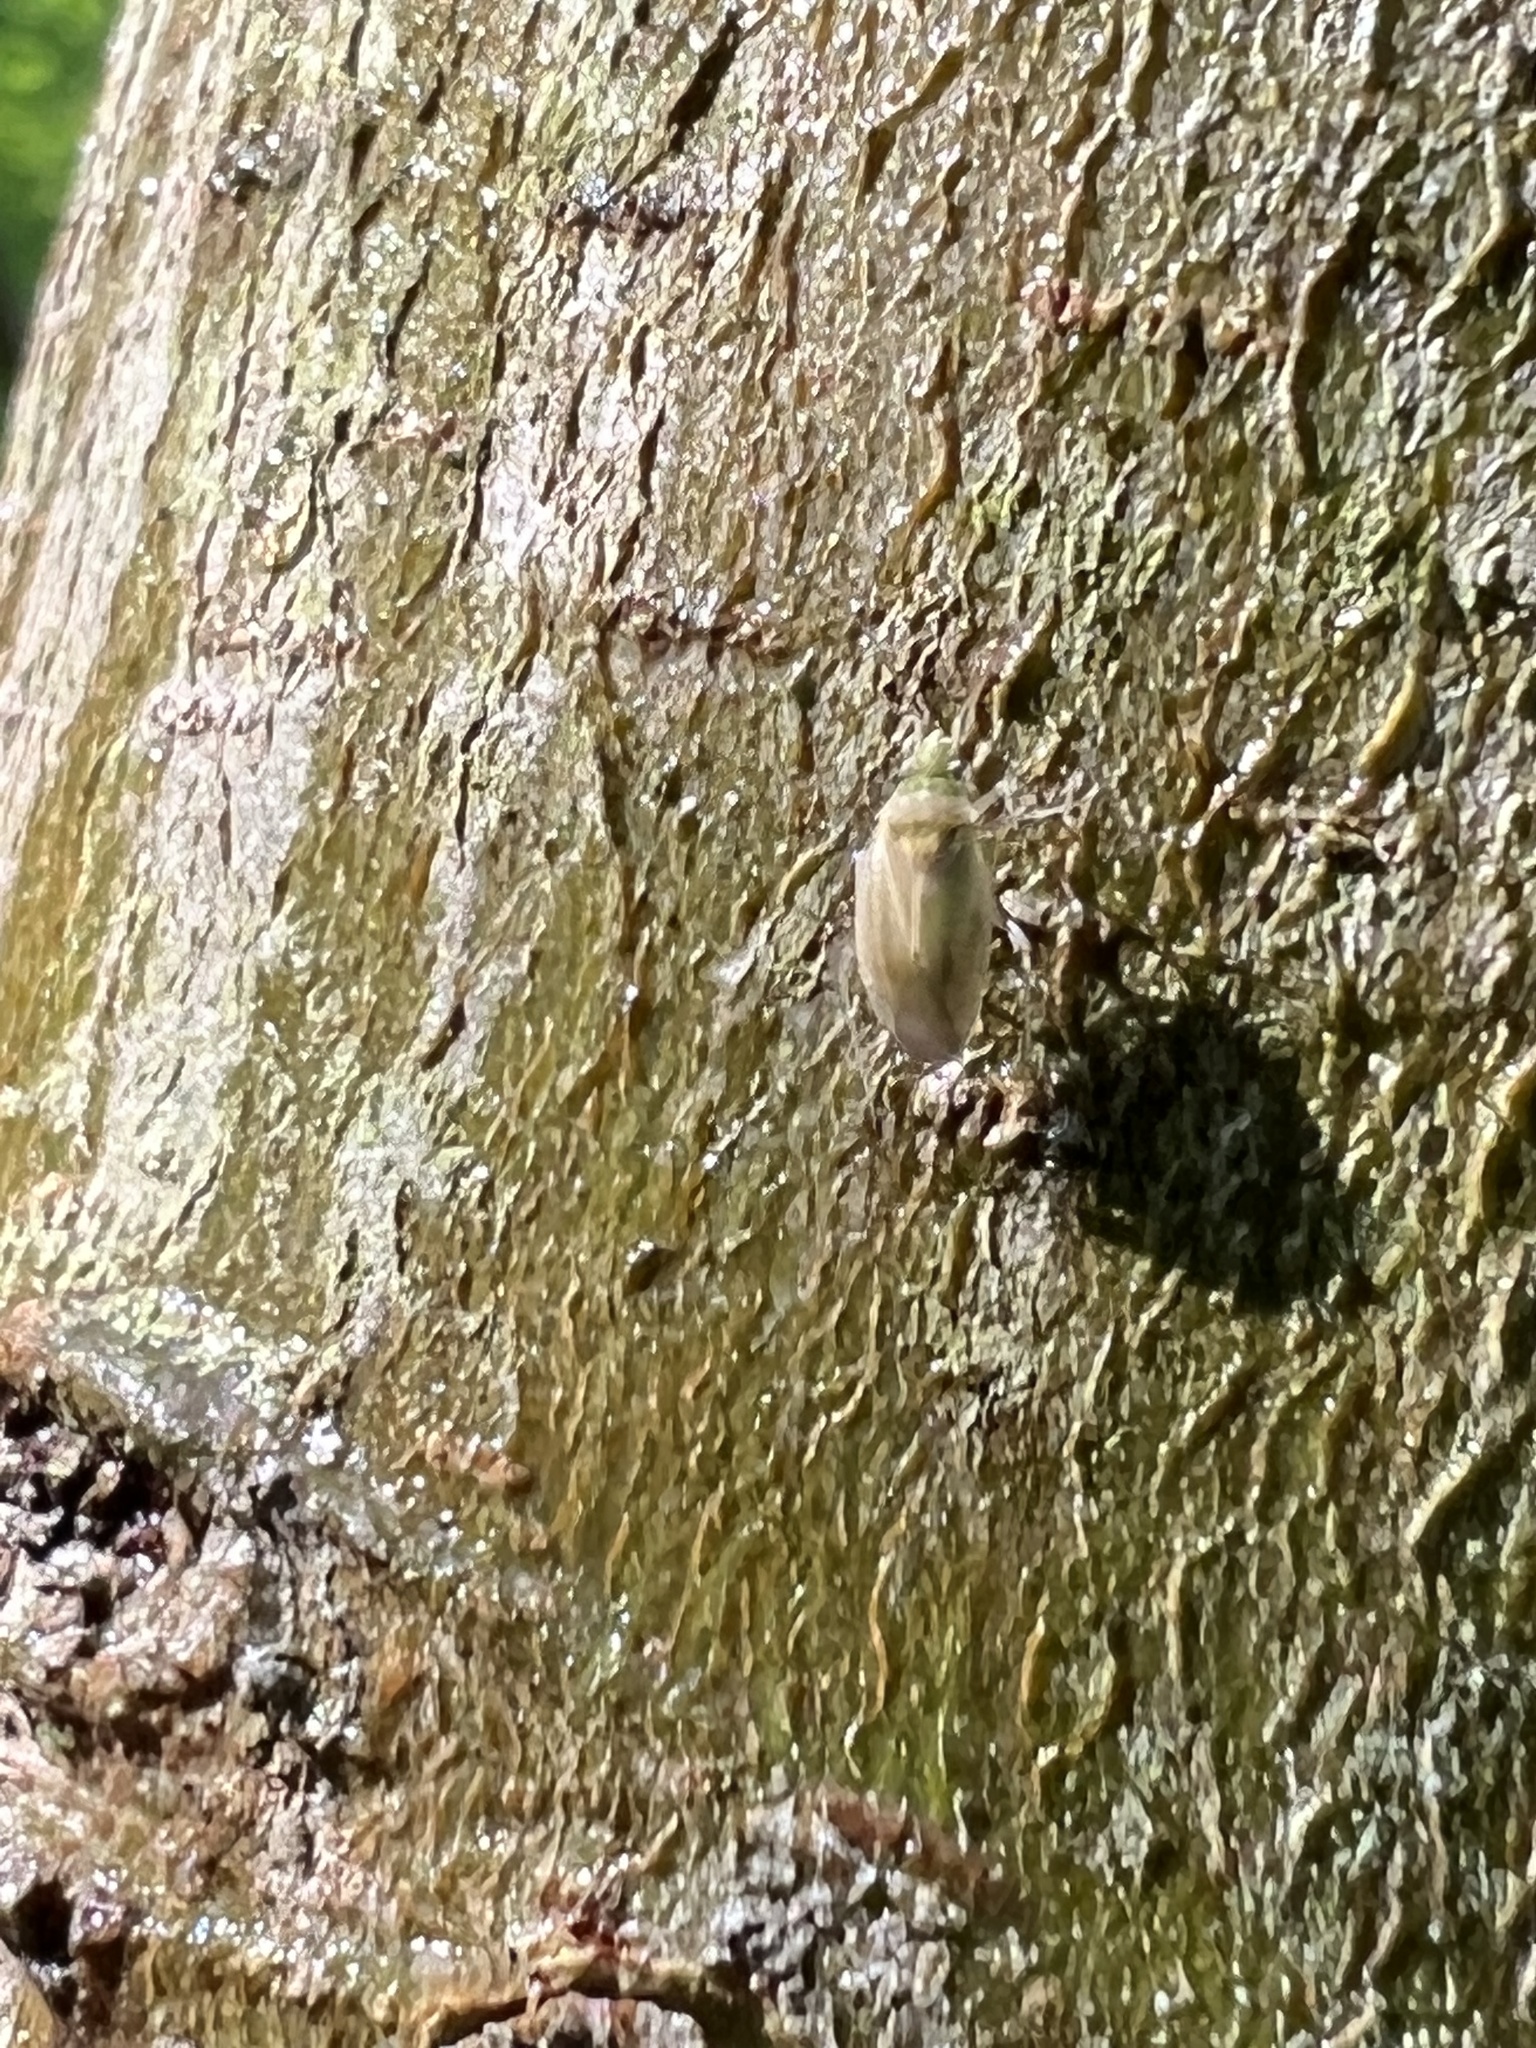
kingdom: Animalia
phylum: Arthropoda
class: Insecta
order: Hemiptera
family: Miridae
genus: Amblytylus
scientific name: Amblytylus nasutus
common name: Plant bug
